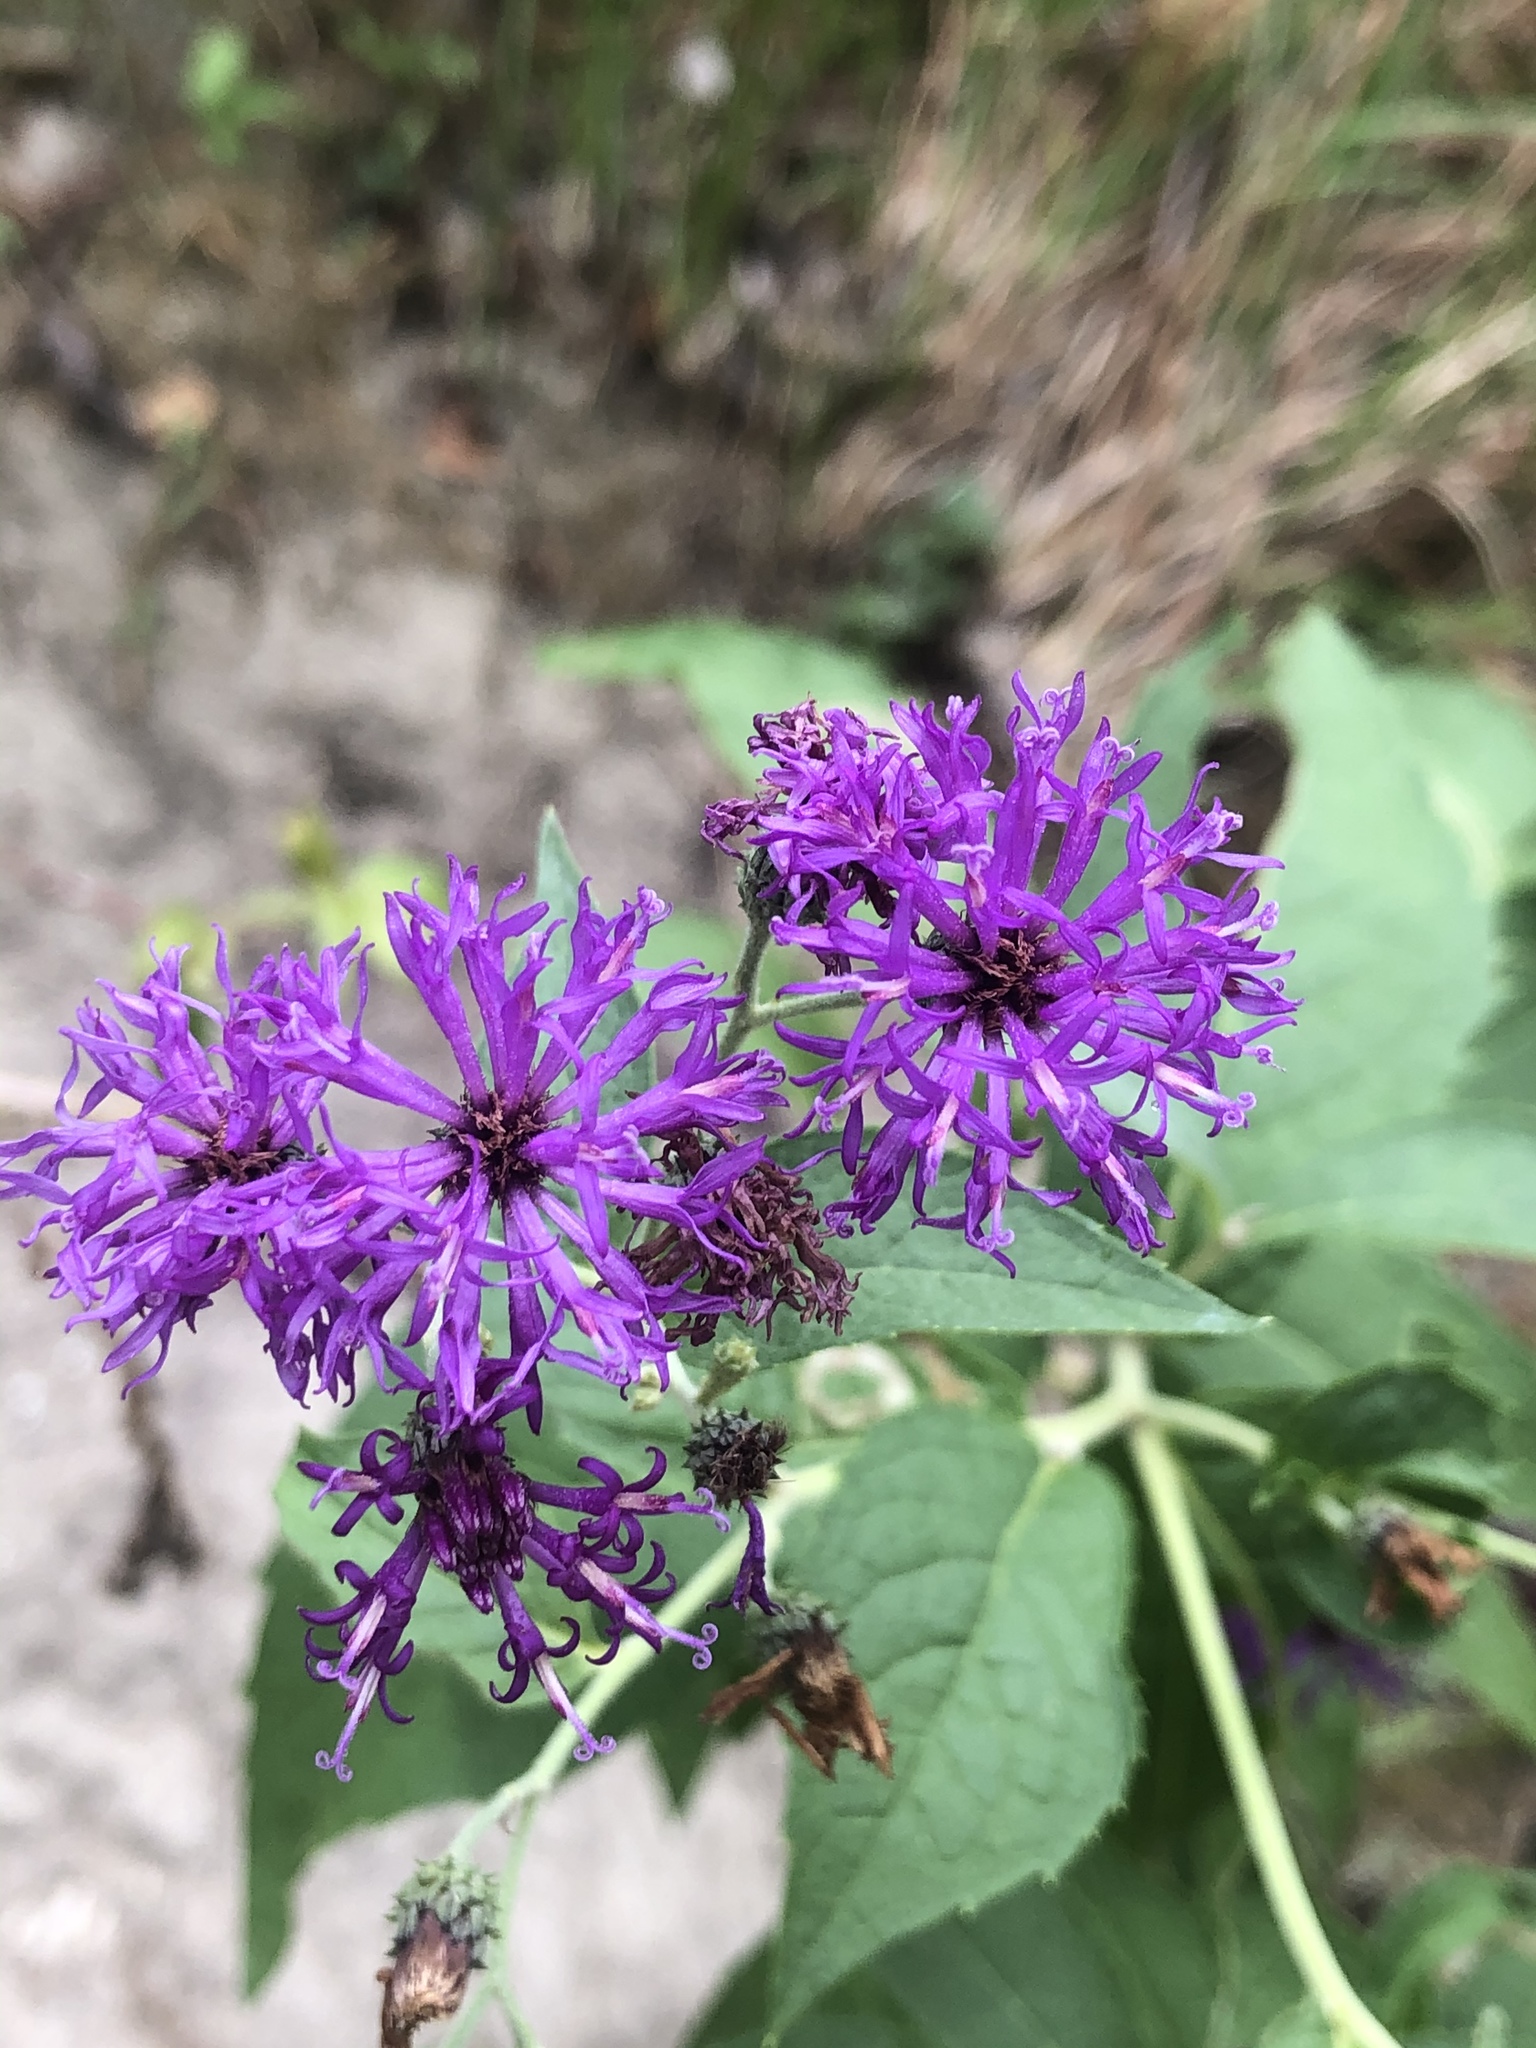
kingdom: Plantae
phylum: Tracheophyta
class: Magnoliopsida
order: Asterales
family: Asteraceae
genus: Vernonia
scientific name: Vernonia baldwinii
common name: Western ironweed
